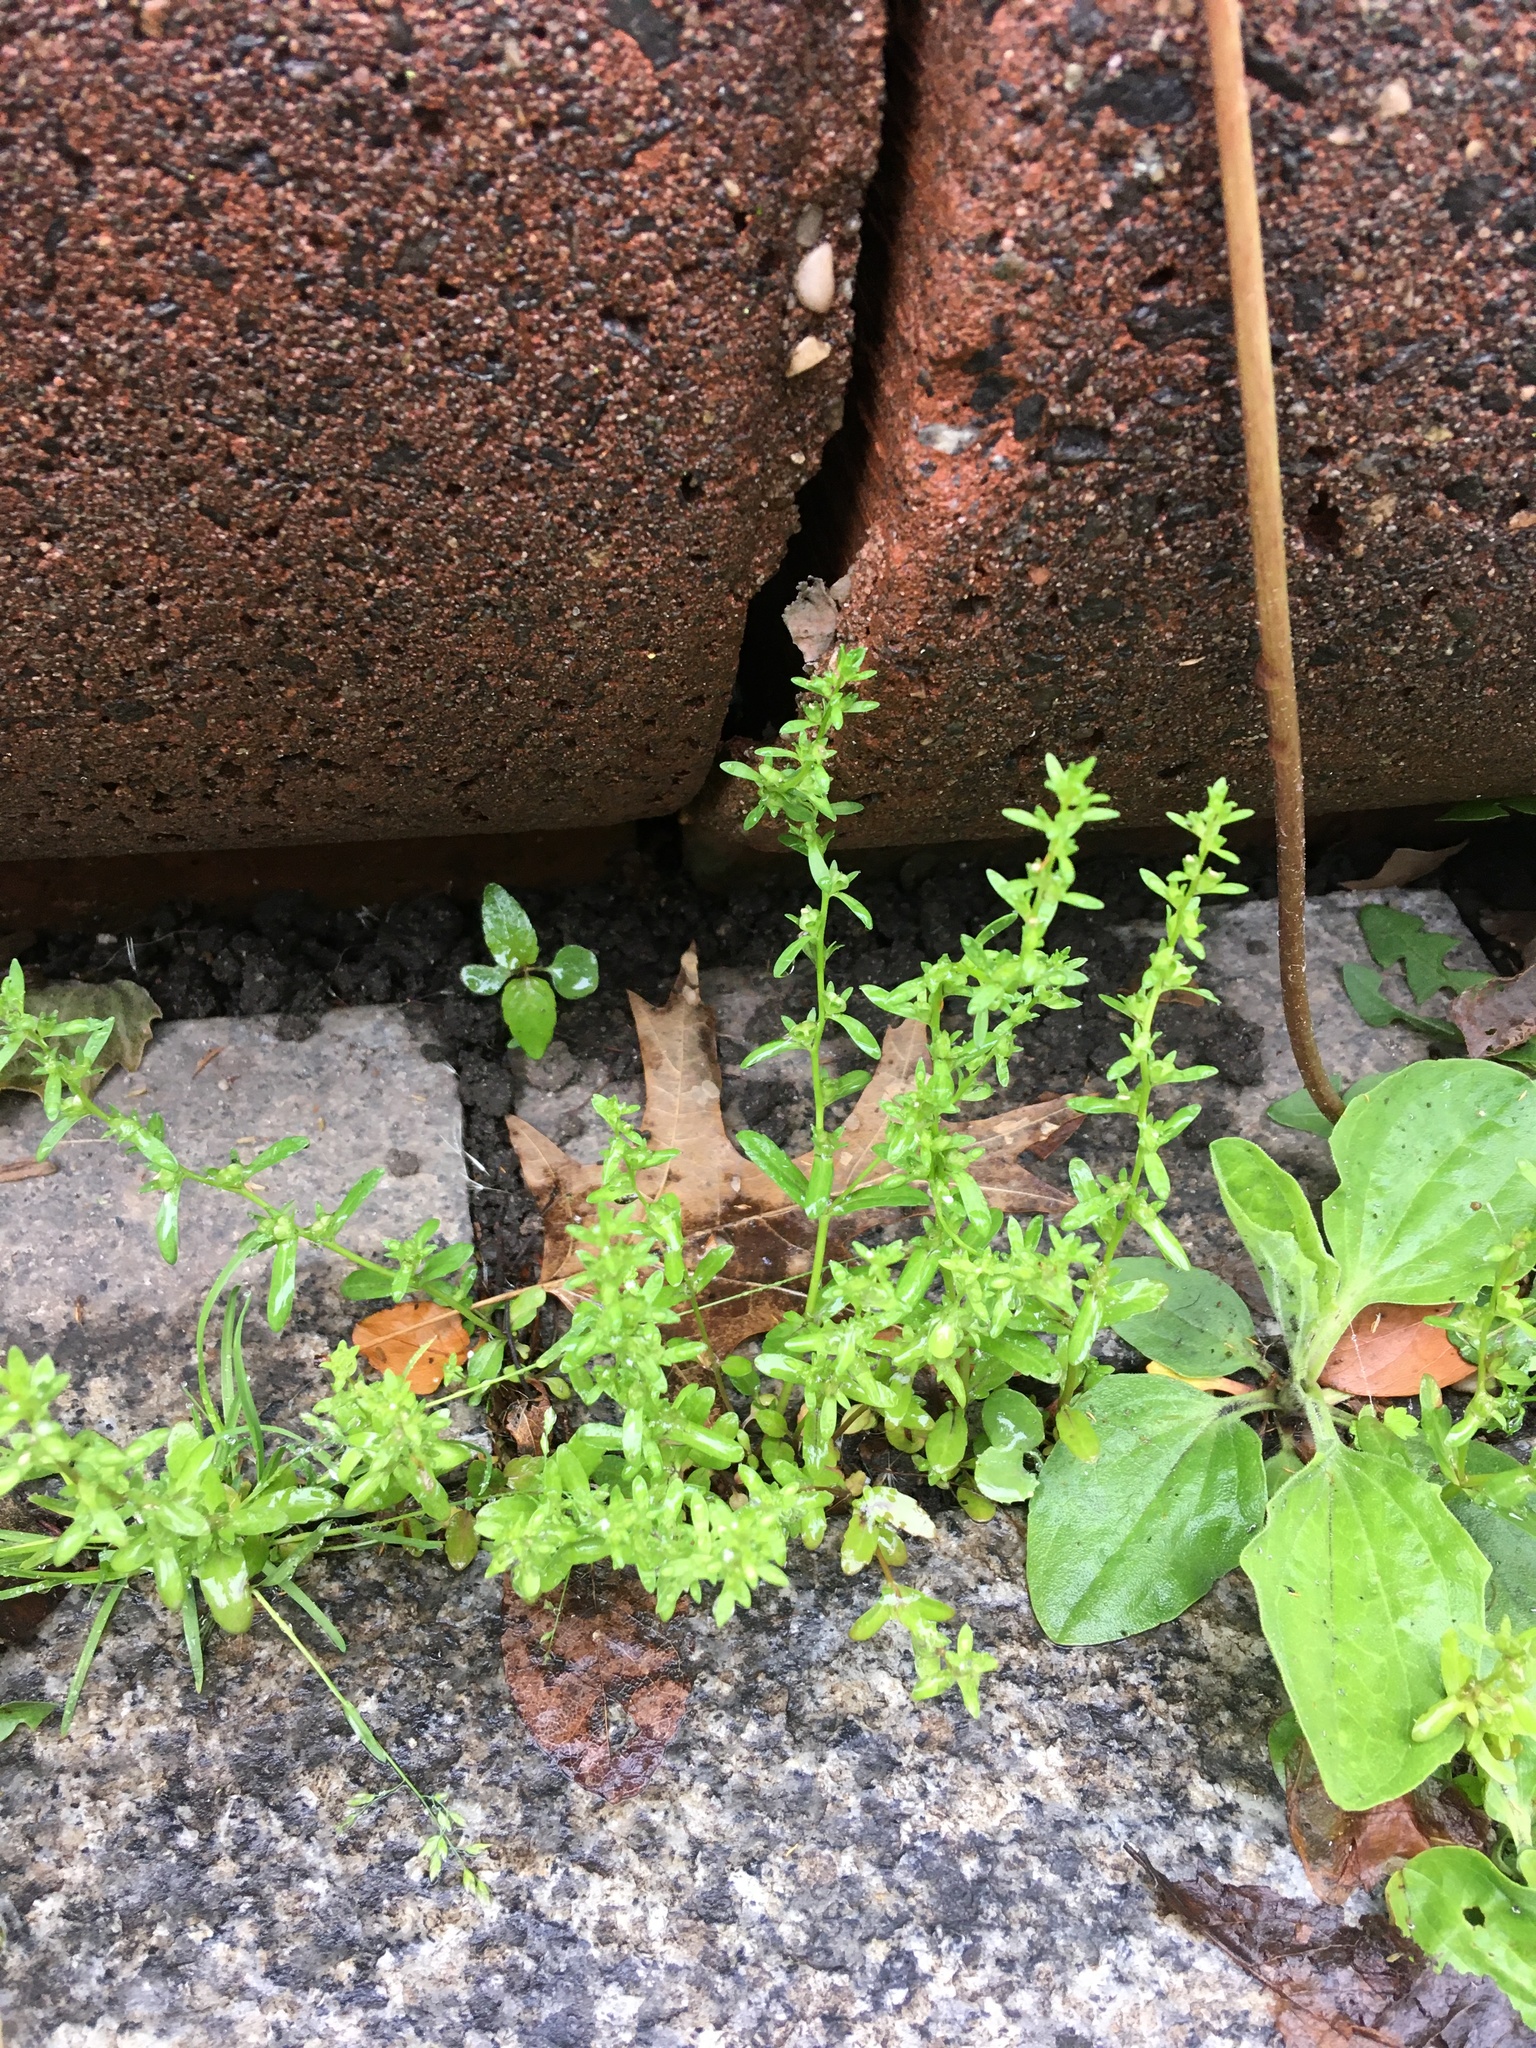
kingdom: Plantae
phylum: Tracheophyta
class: Magnoliopsida
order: Lamiales
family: Plantaginaceae
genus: Veronica
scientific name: Veronica peregrina
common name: Neckweed
